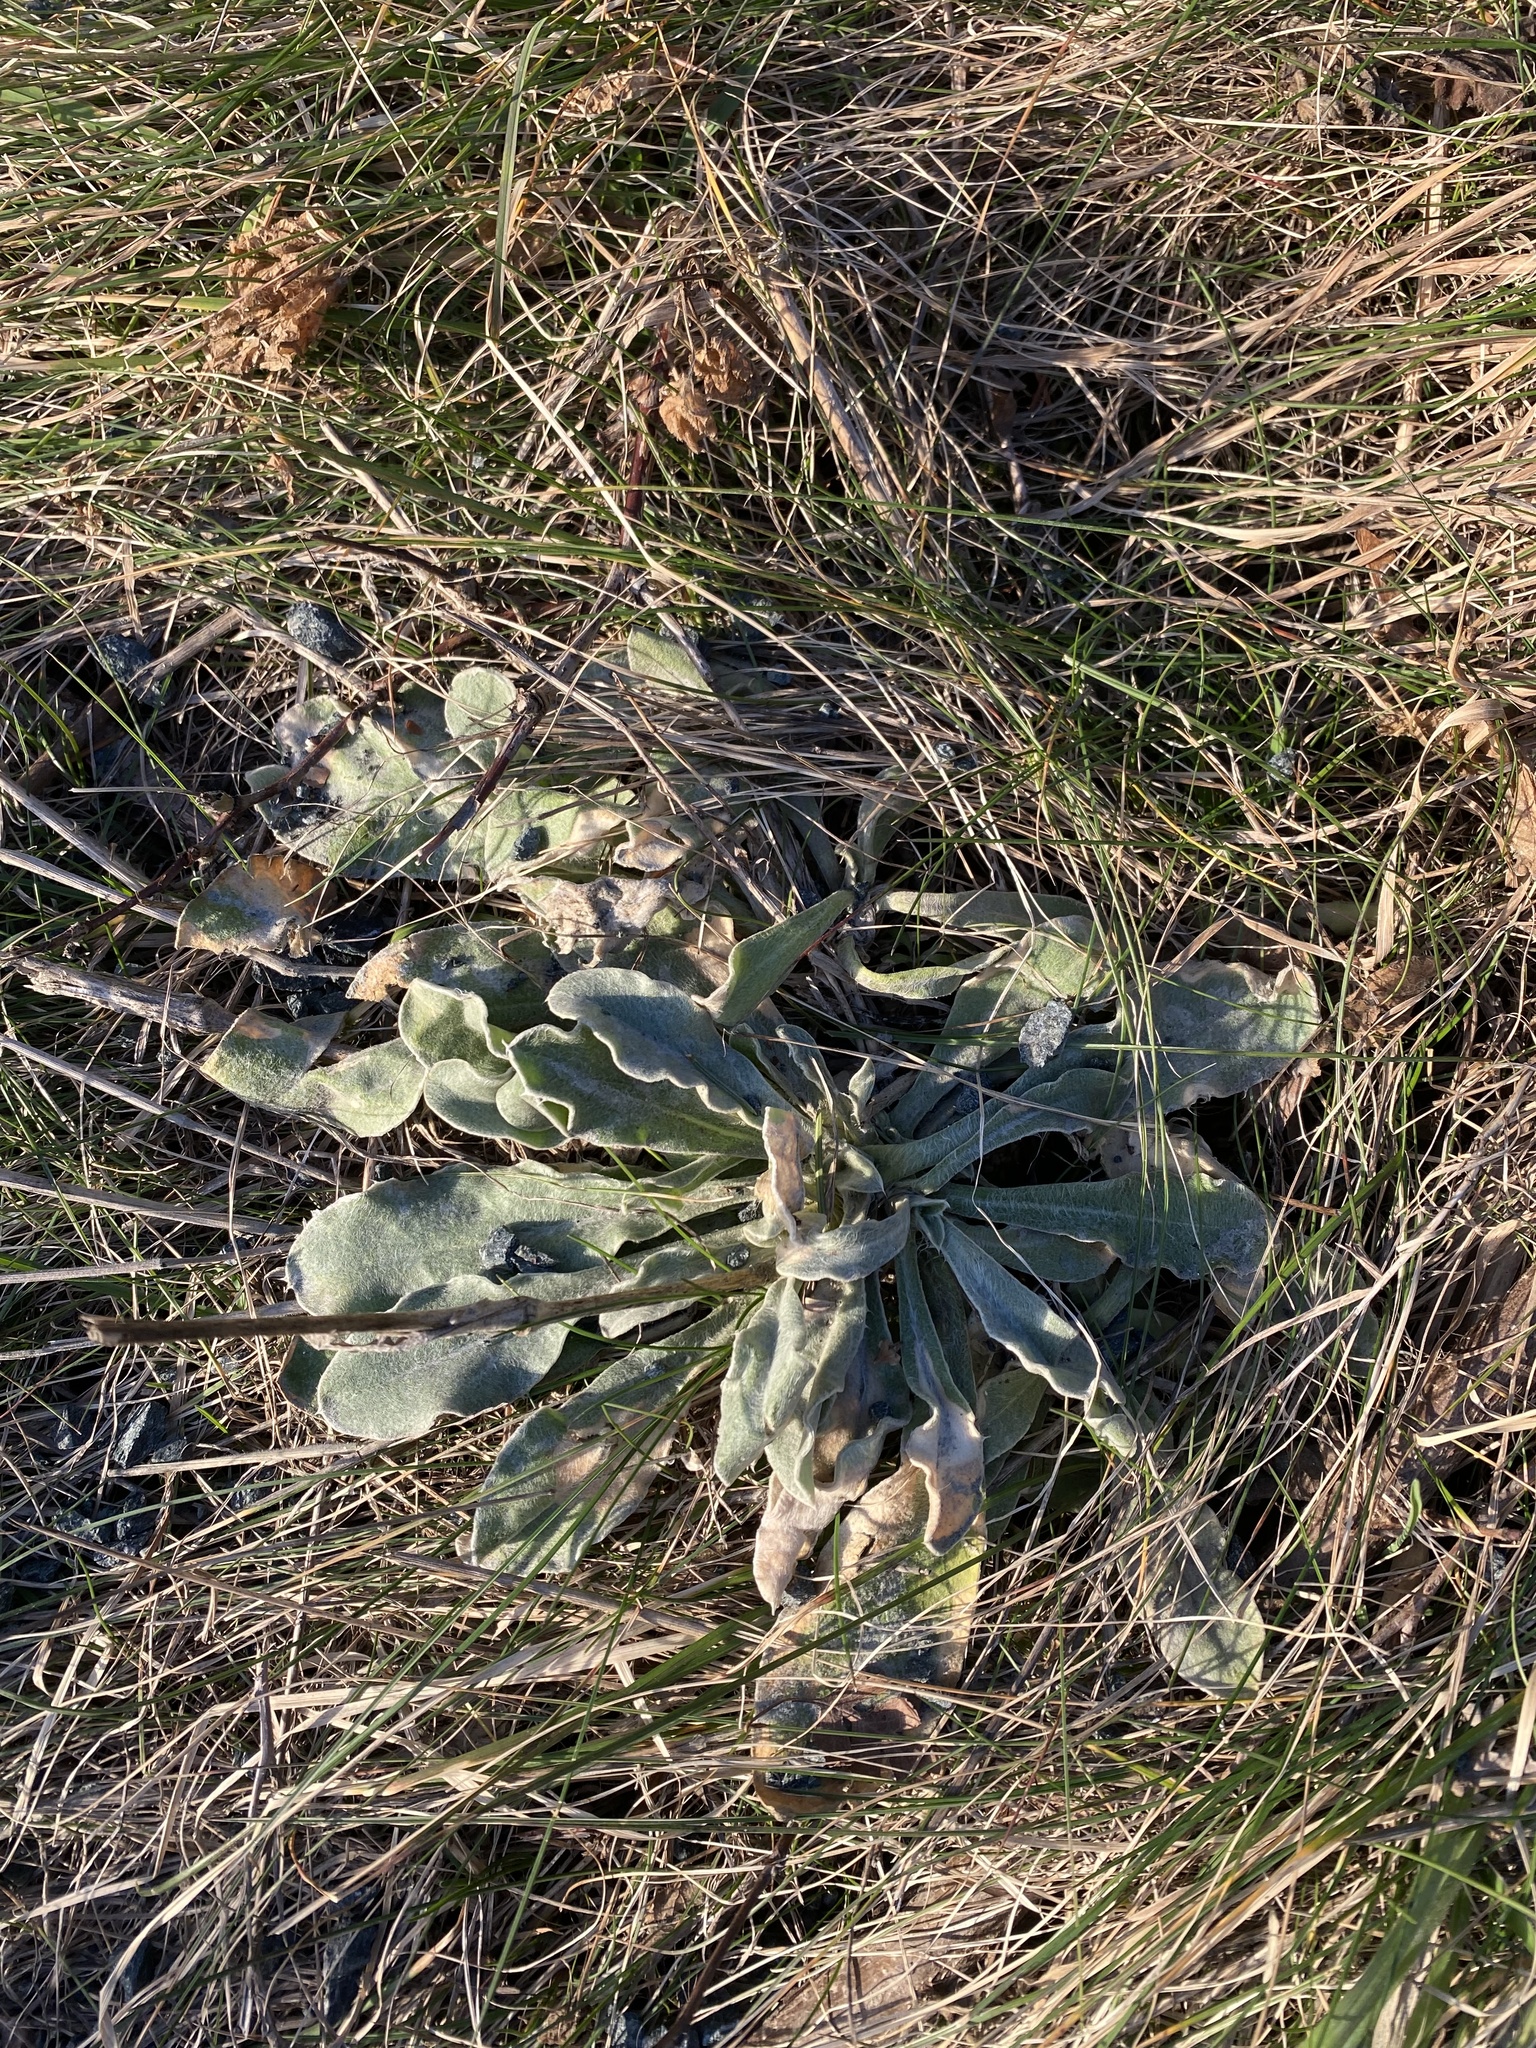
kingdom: Plantae
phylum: Tracheophyta
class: Magnoliopsida
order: Caryophyllales
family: Caryophyllaceae
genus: Silene
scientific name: Silene coronaria
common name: Rose campion
